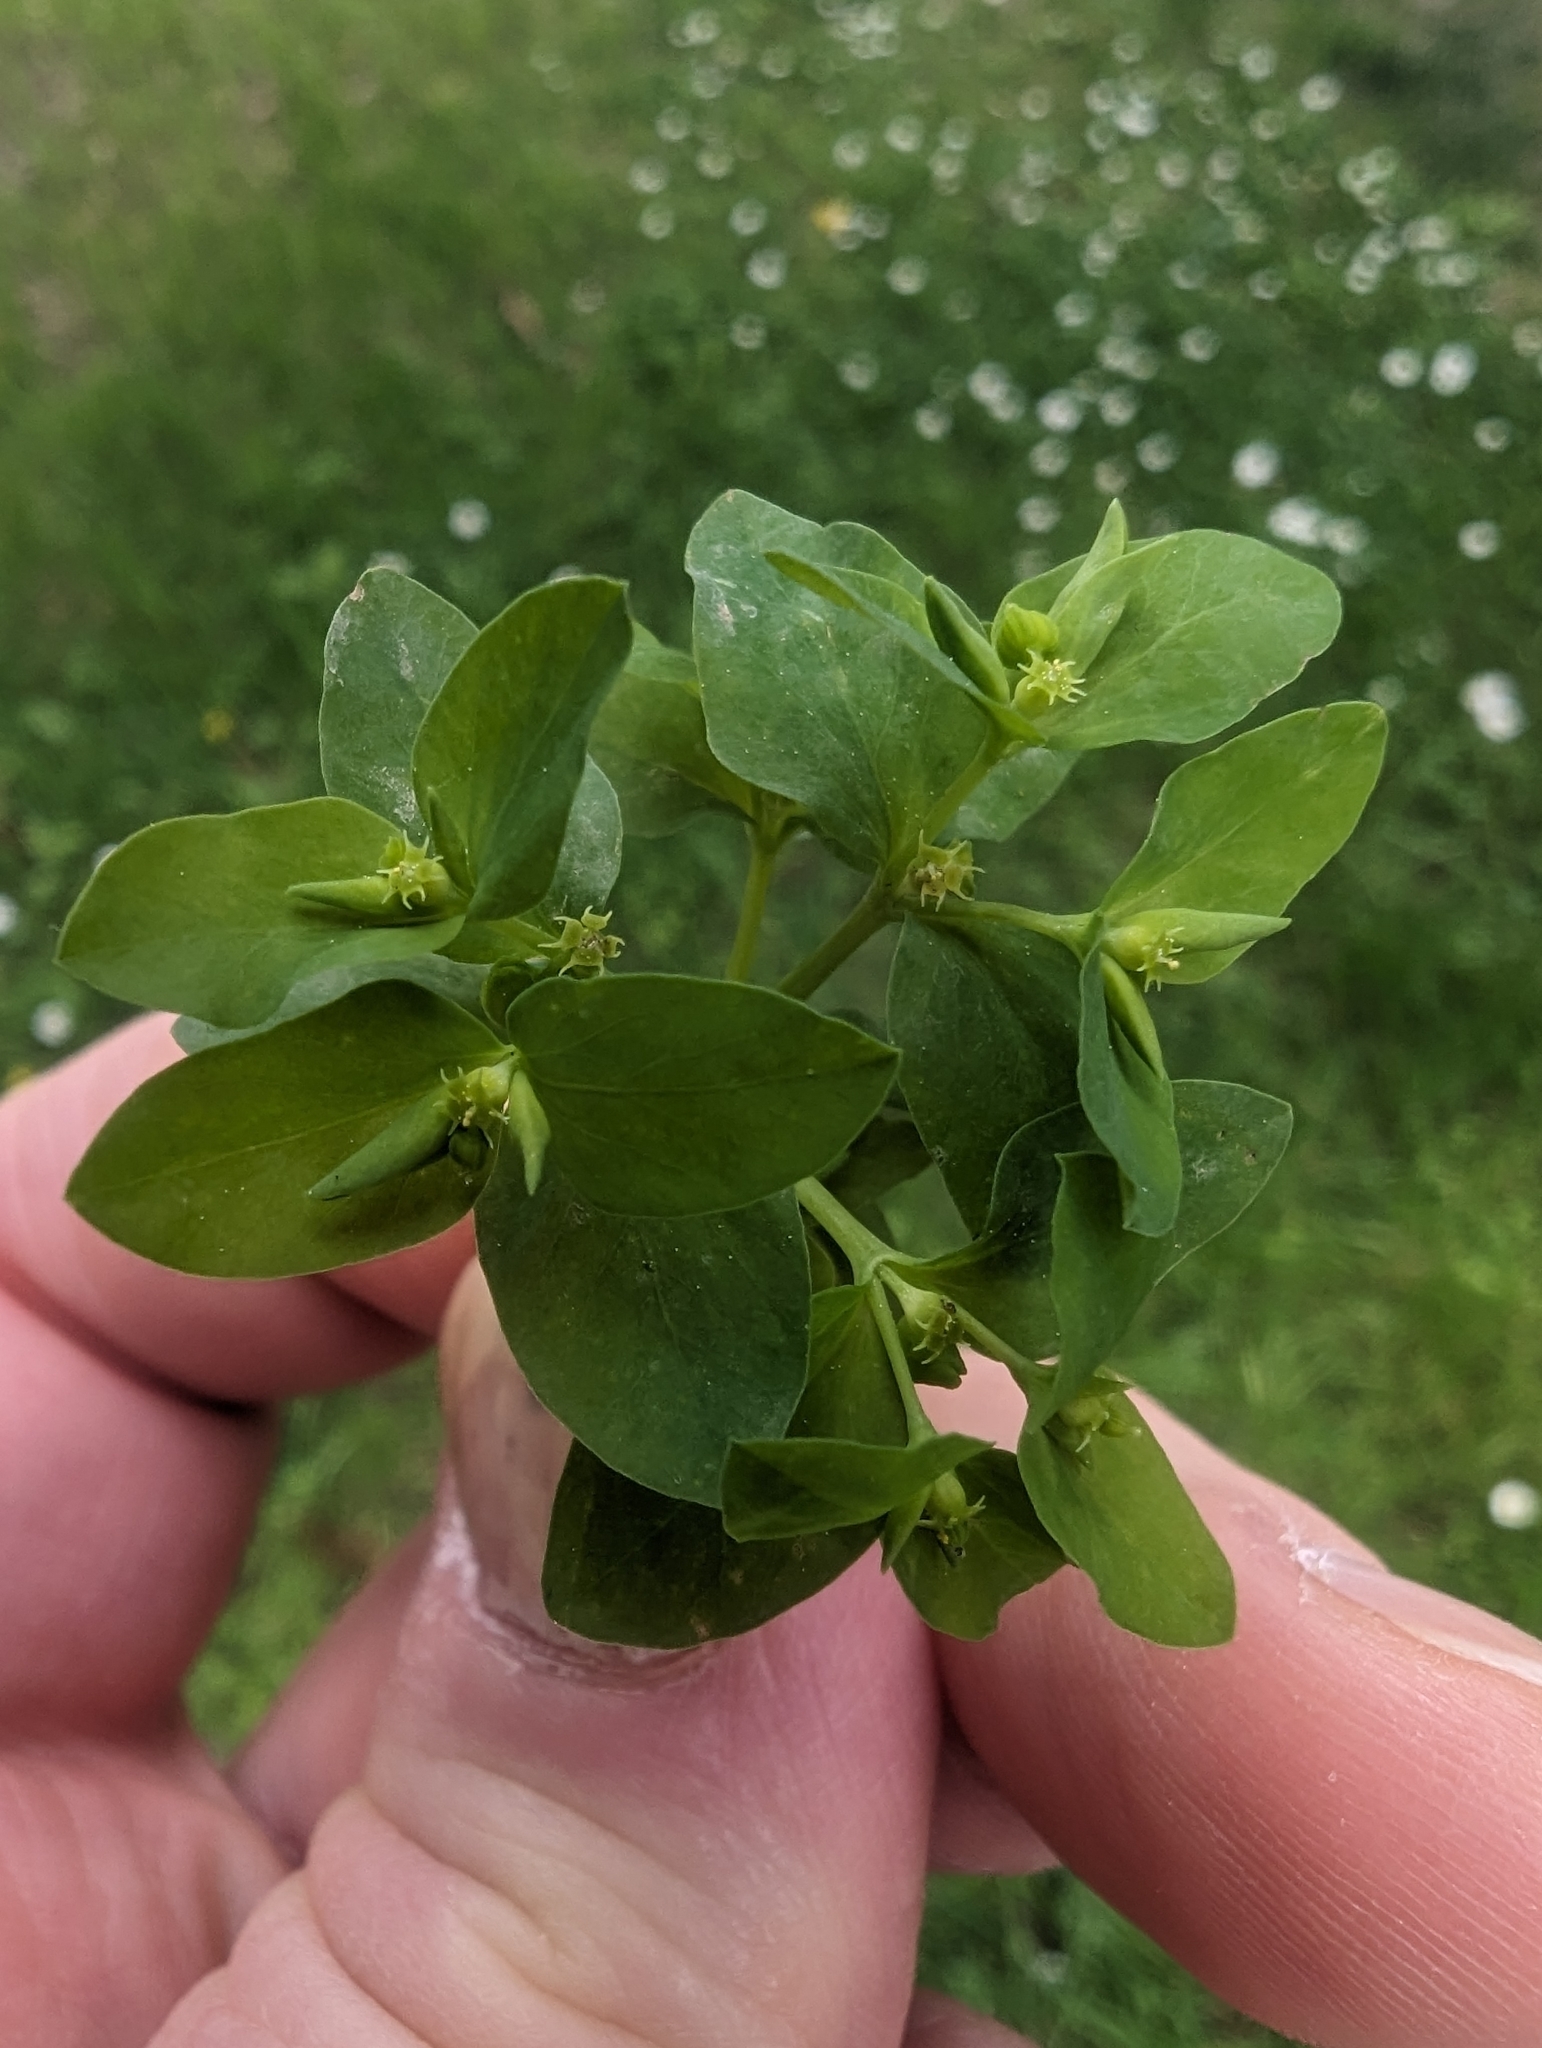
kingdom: Plantae
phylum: Tracheophyta
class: Magnoliopsida
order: Malpighiales
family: Euphorbiaceae
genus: Euphorbia
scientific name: Euphorbia peplus
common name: Petty spurge
